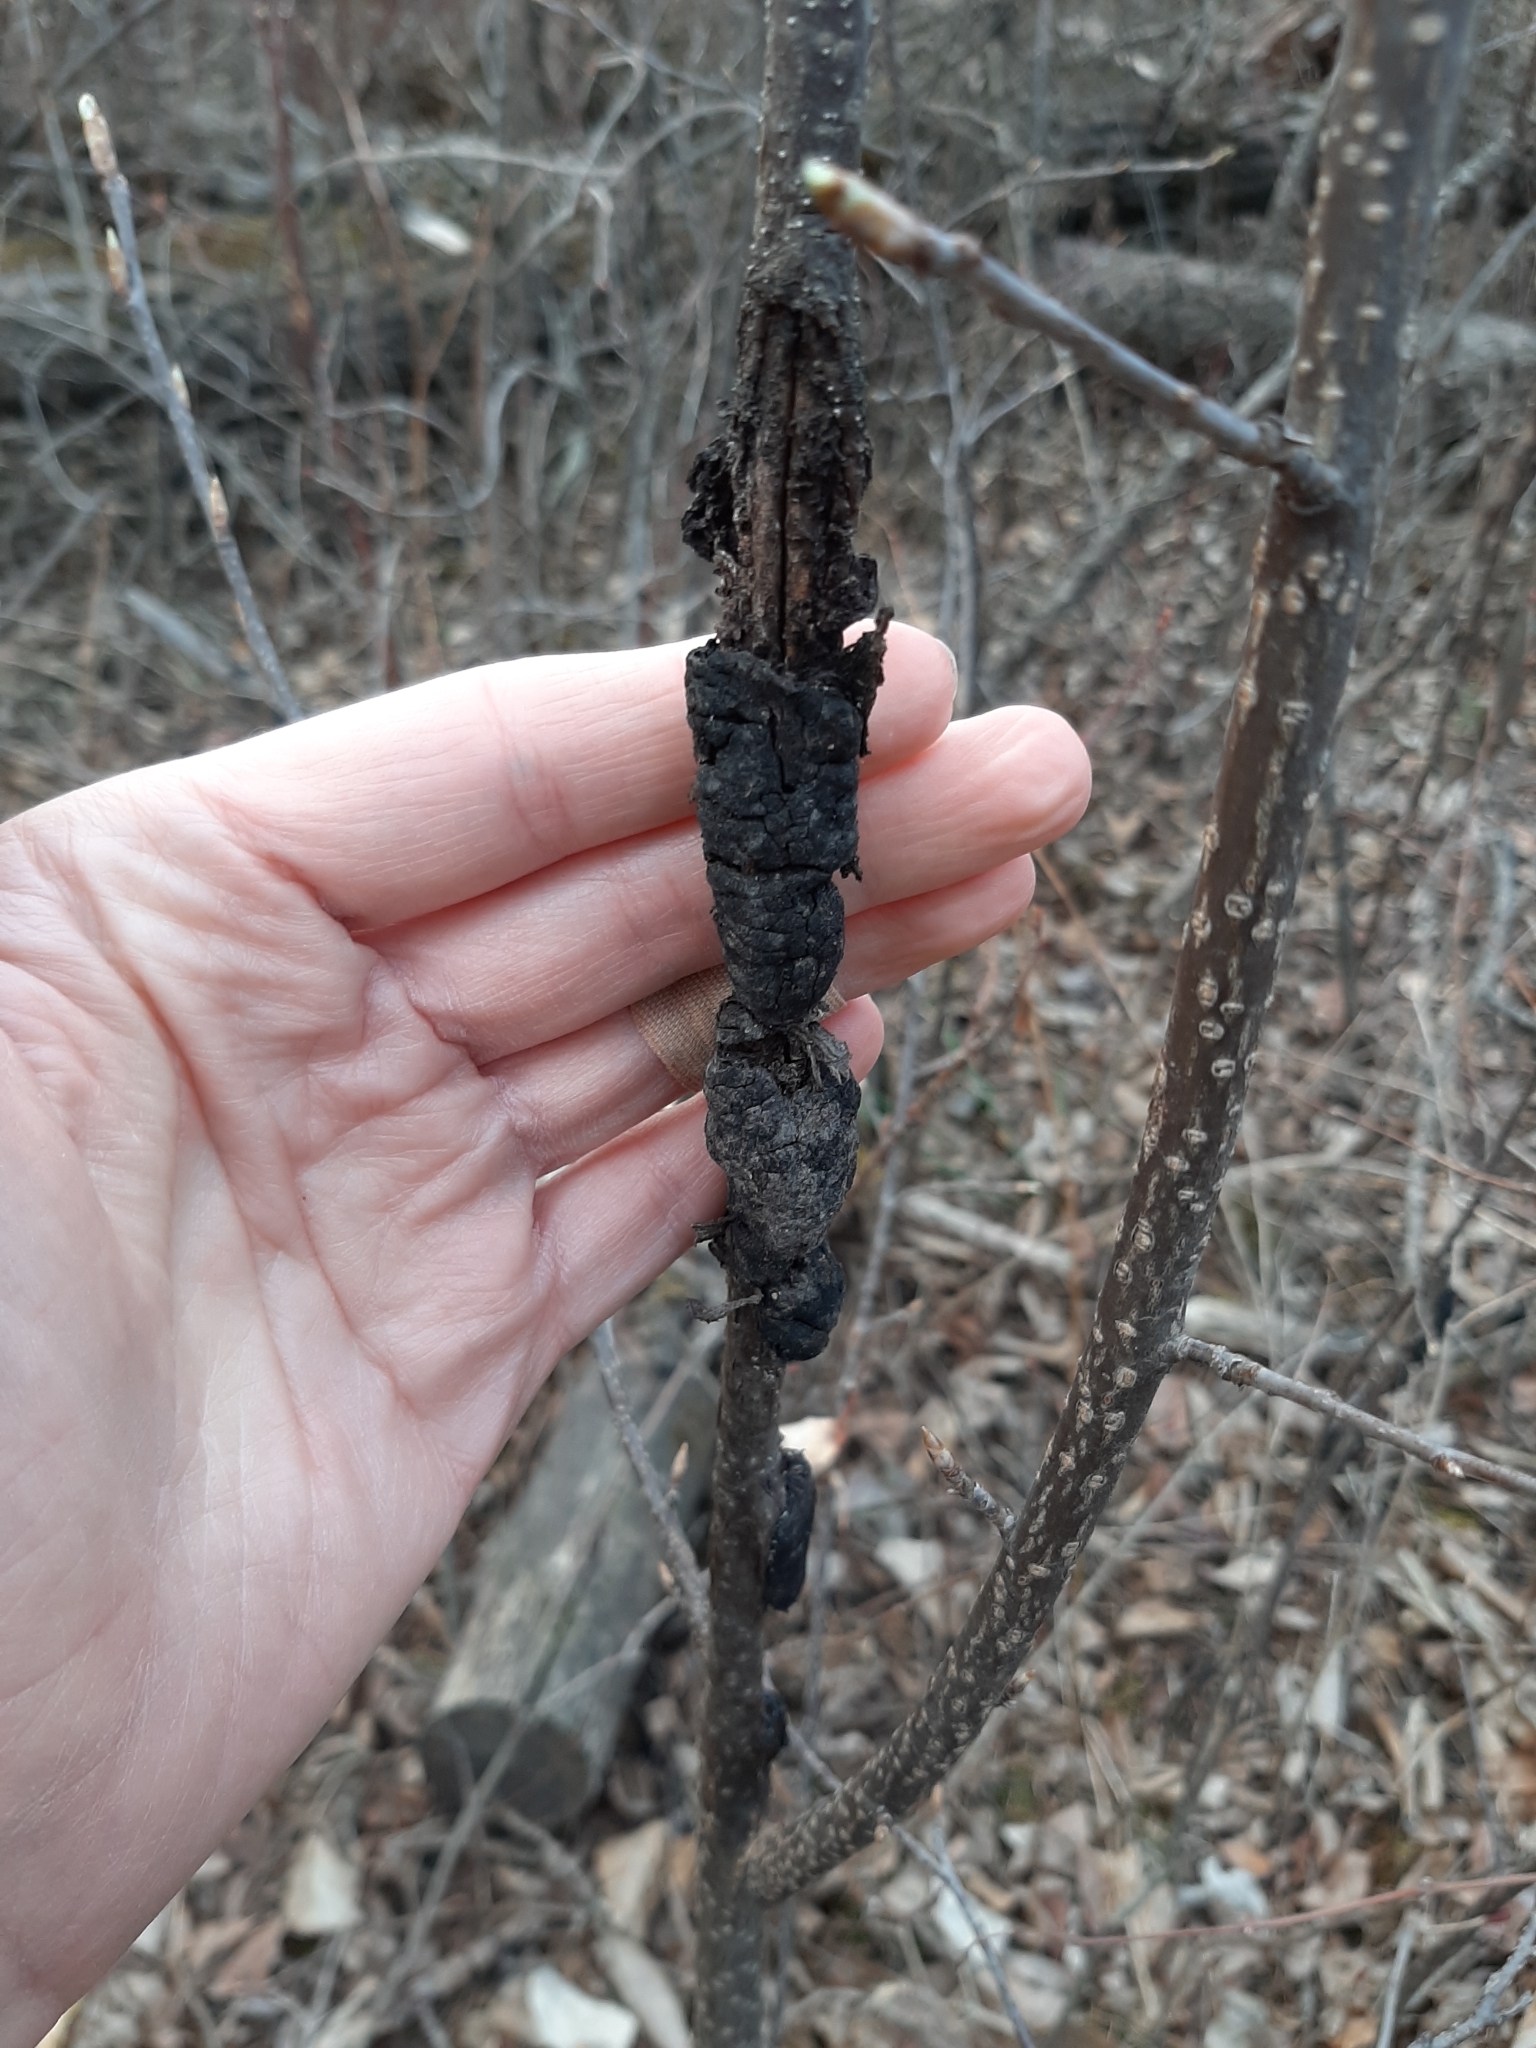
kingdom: Fungi
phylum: Ascomycota
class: Dothideomycetes
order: Venturiales
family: Venturiaceae
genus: Apiosporina
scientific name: Apiosporina morbosa
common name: Black knot
